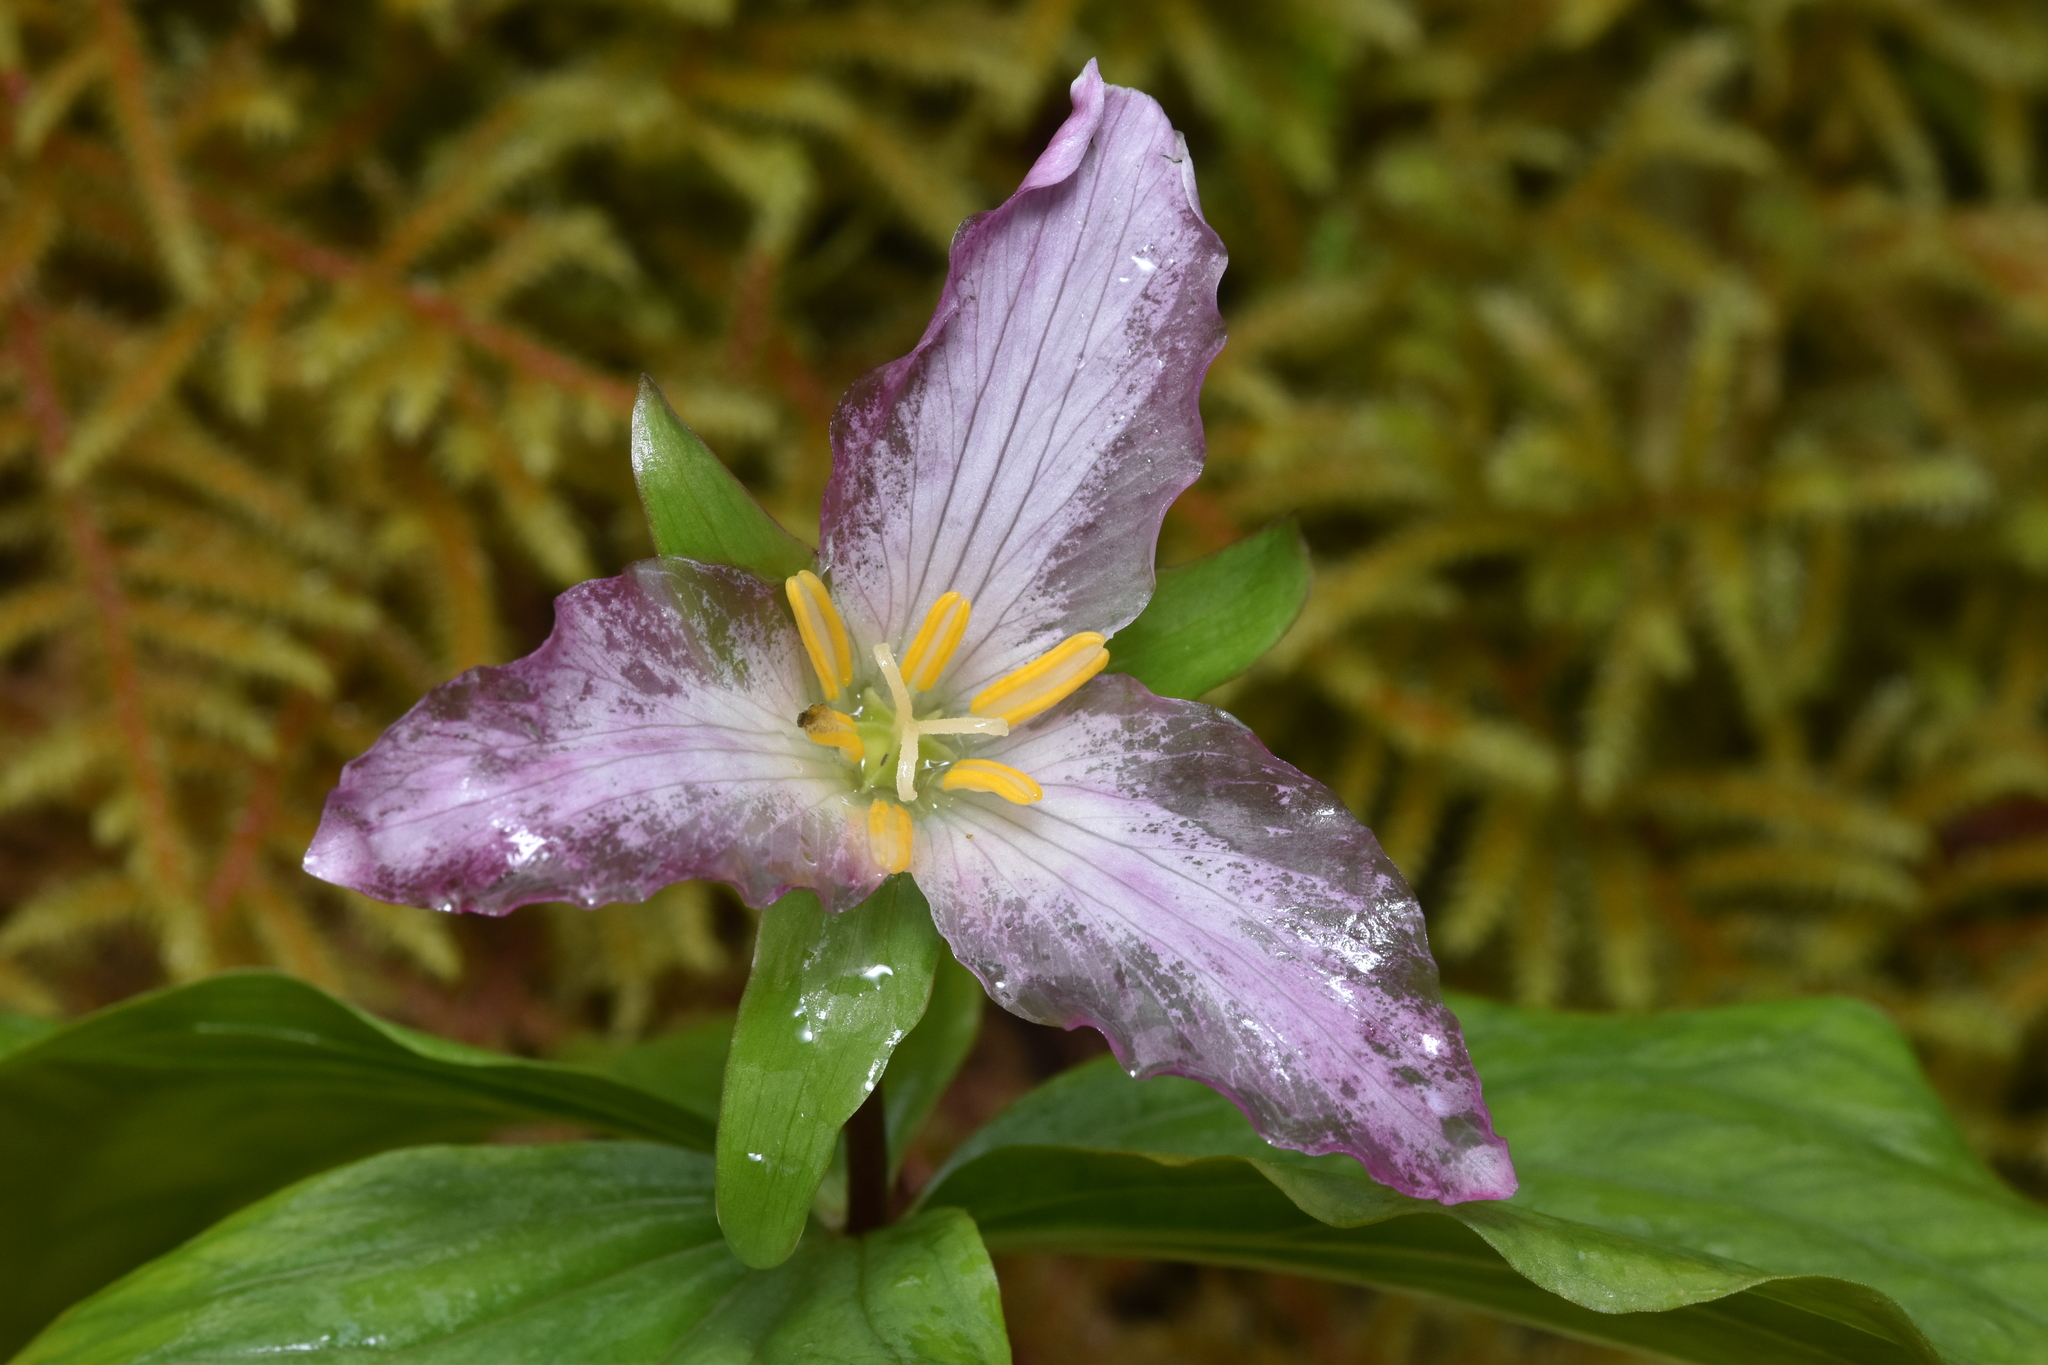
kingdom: Plantae
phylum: Tracheophyta
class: Liliopsida
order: Liliales
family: Melanthiaceae
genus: Trillium
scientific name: Trillium ovatum
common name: Pacific trillium
